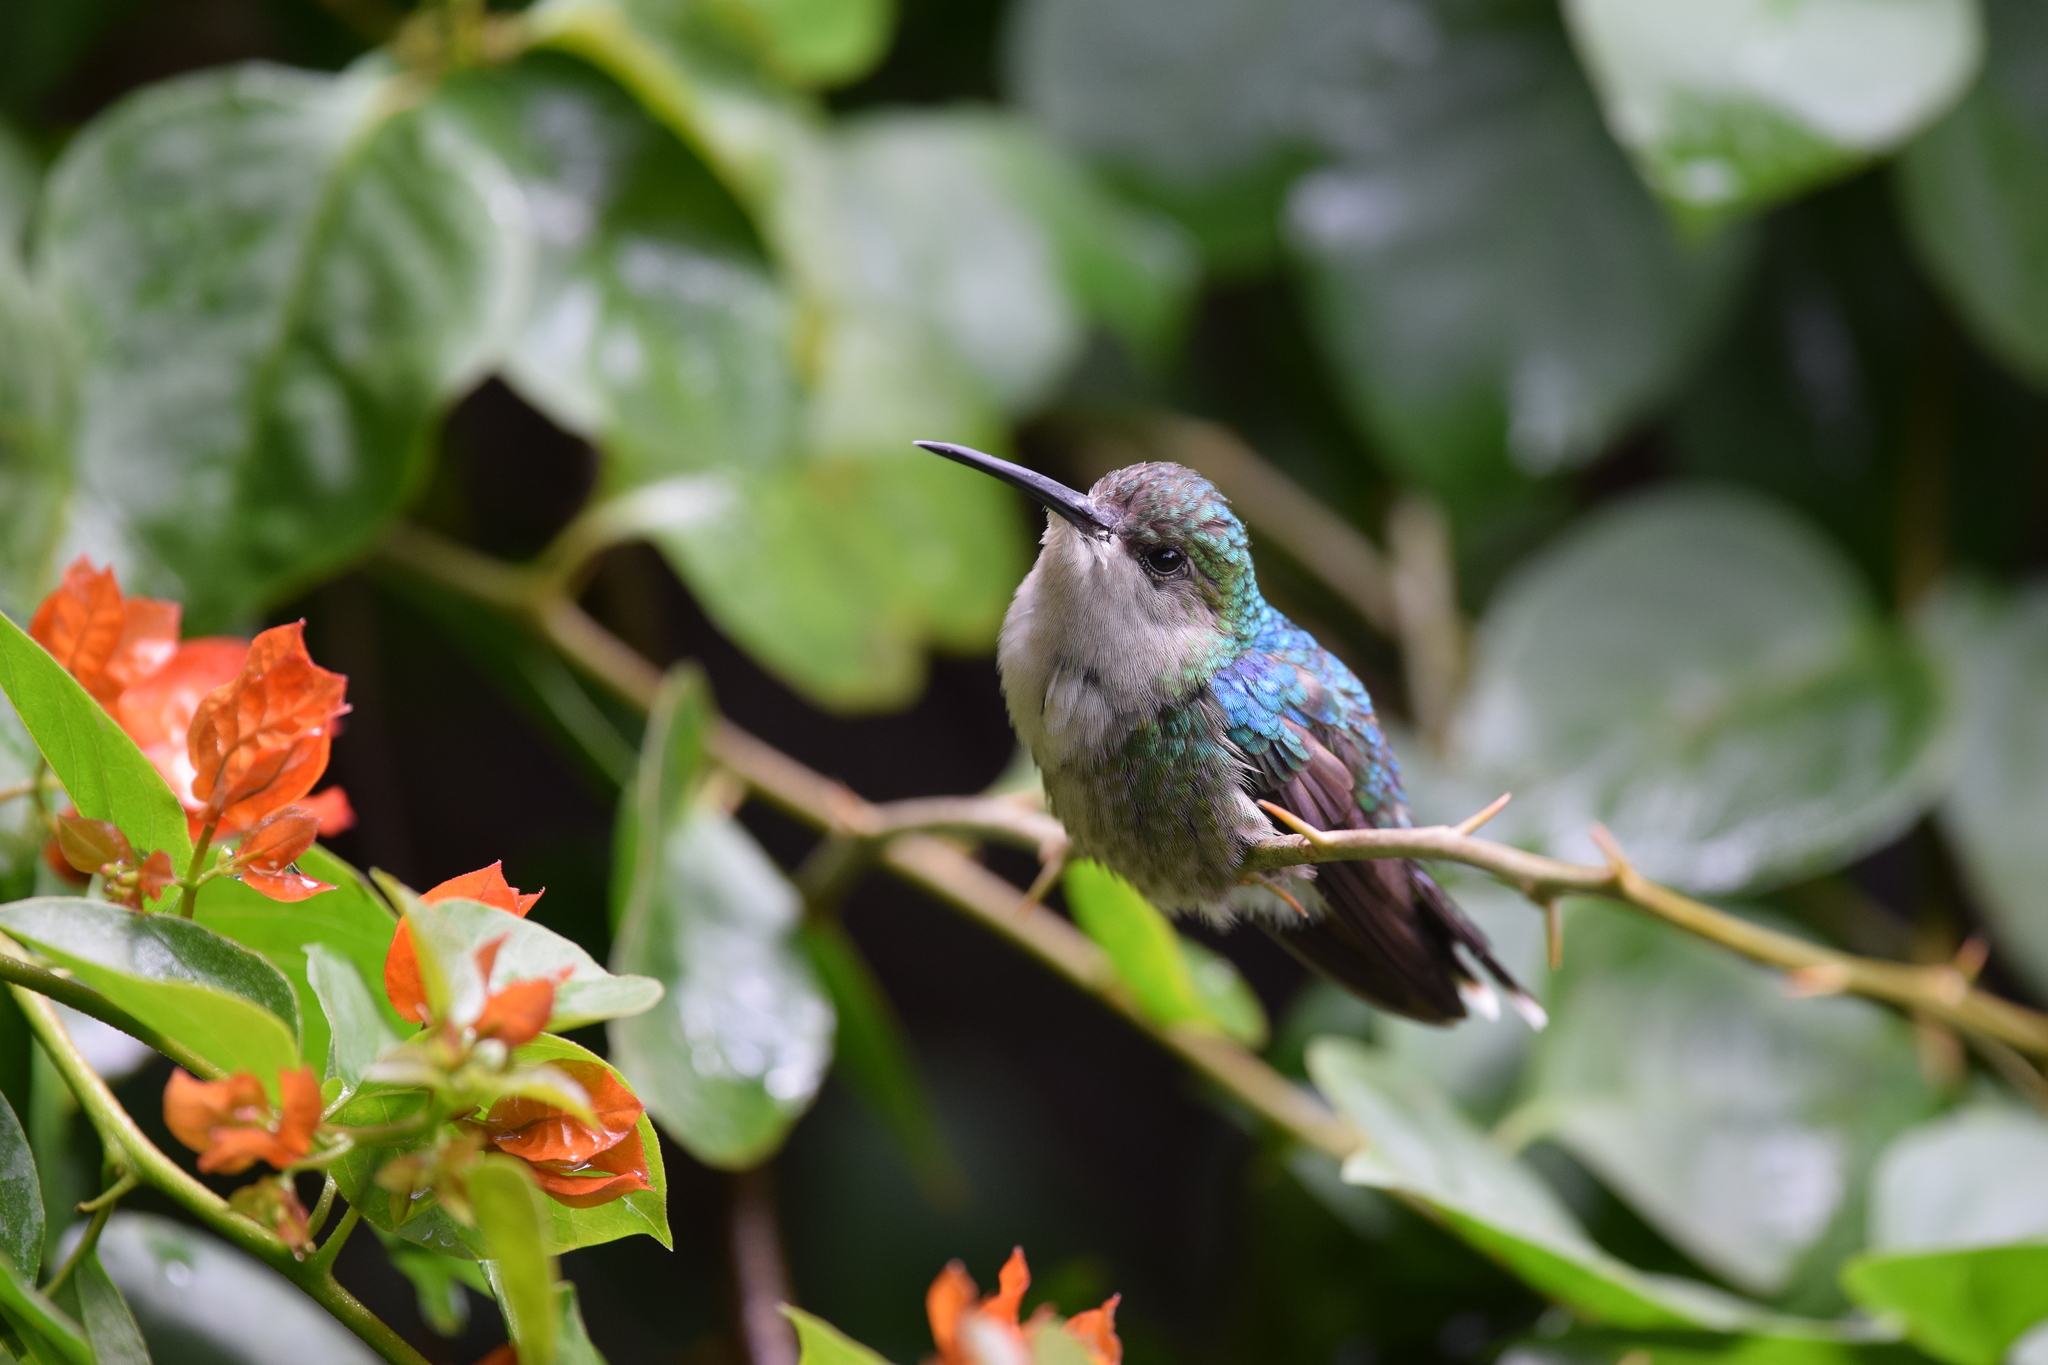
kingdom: Animalia
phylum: Chordata
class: Aves
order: Apodiformes
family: Trochilidae
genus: Thalurania
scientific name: Thalurania colombica
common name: Crowned woodnymph
